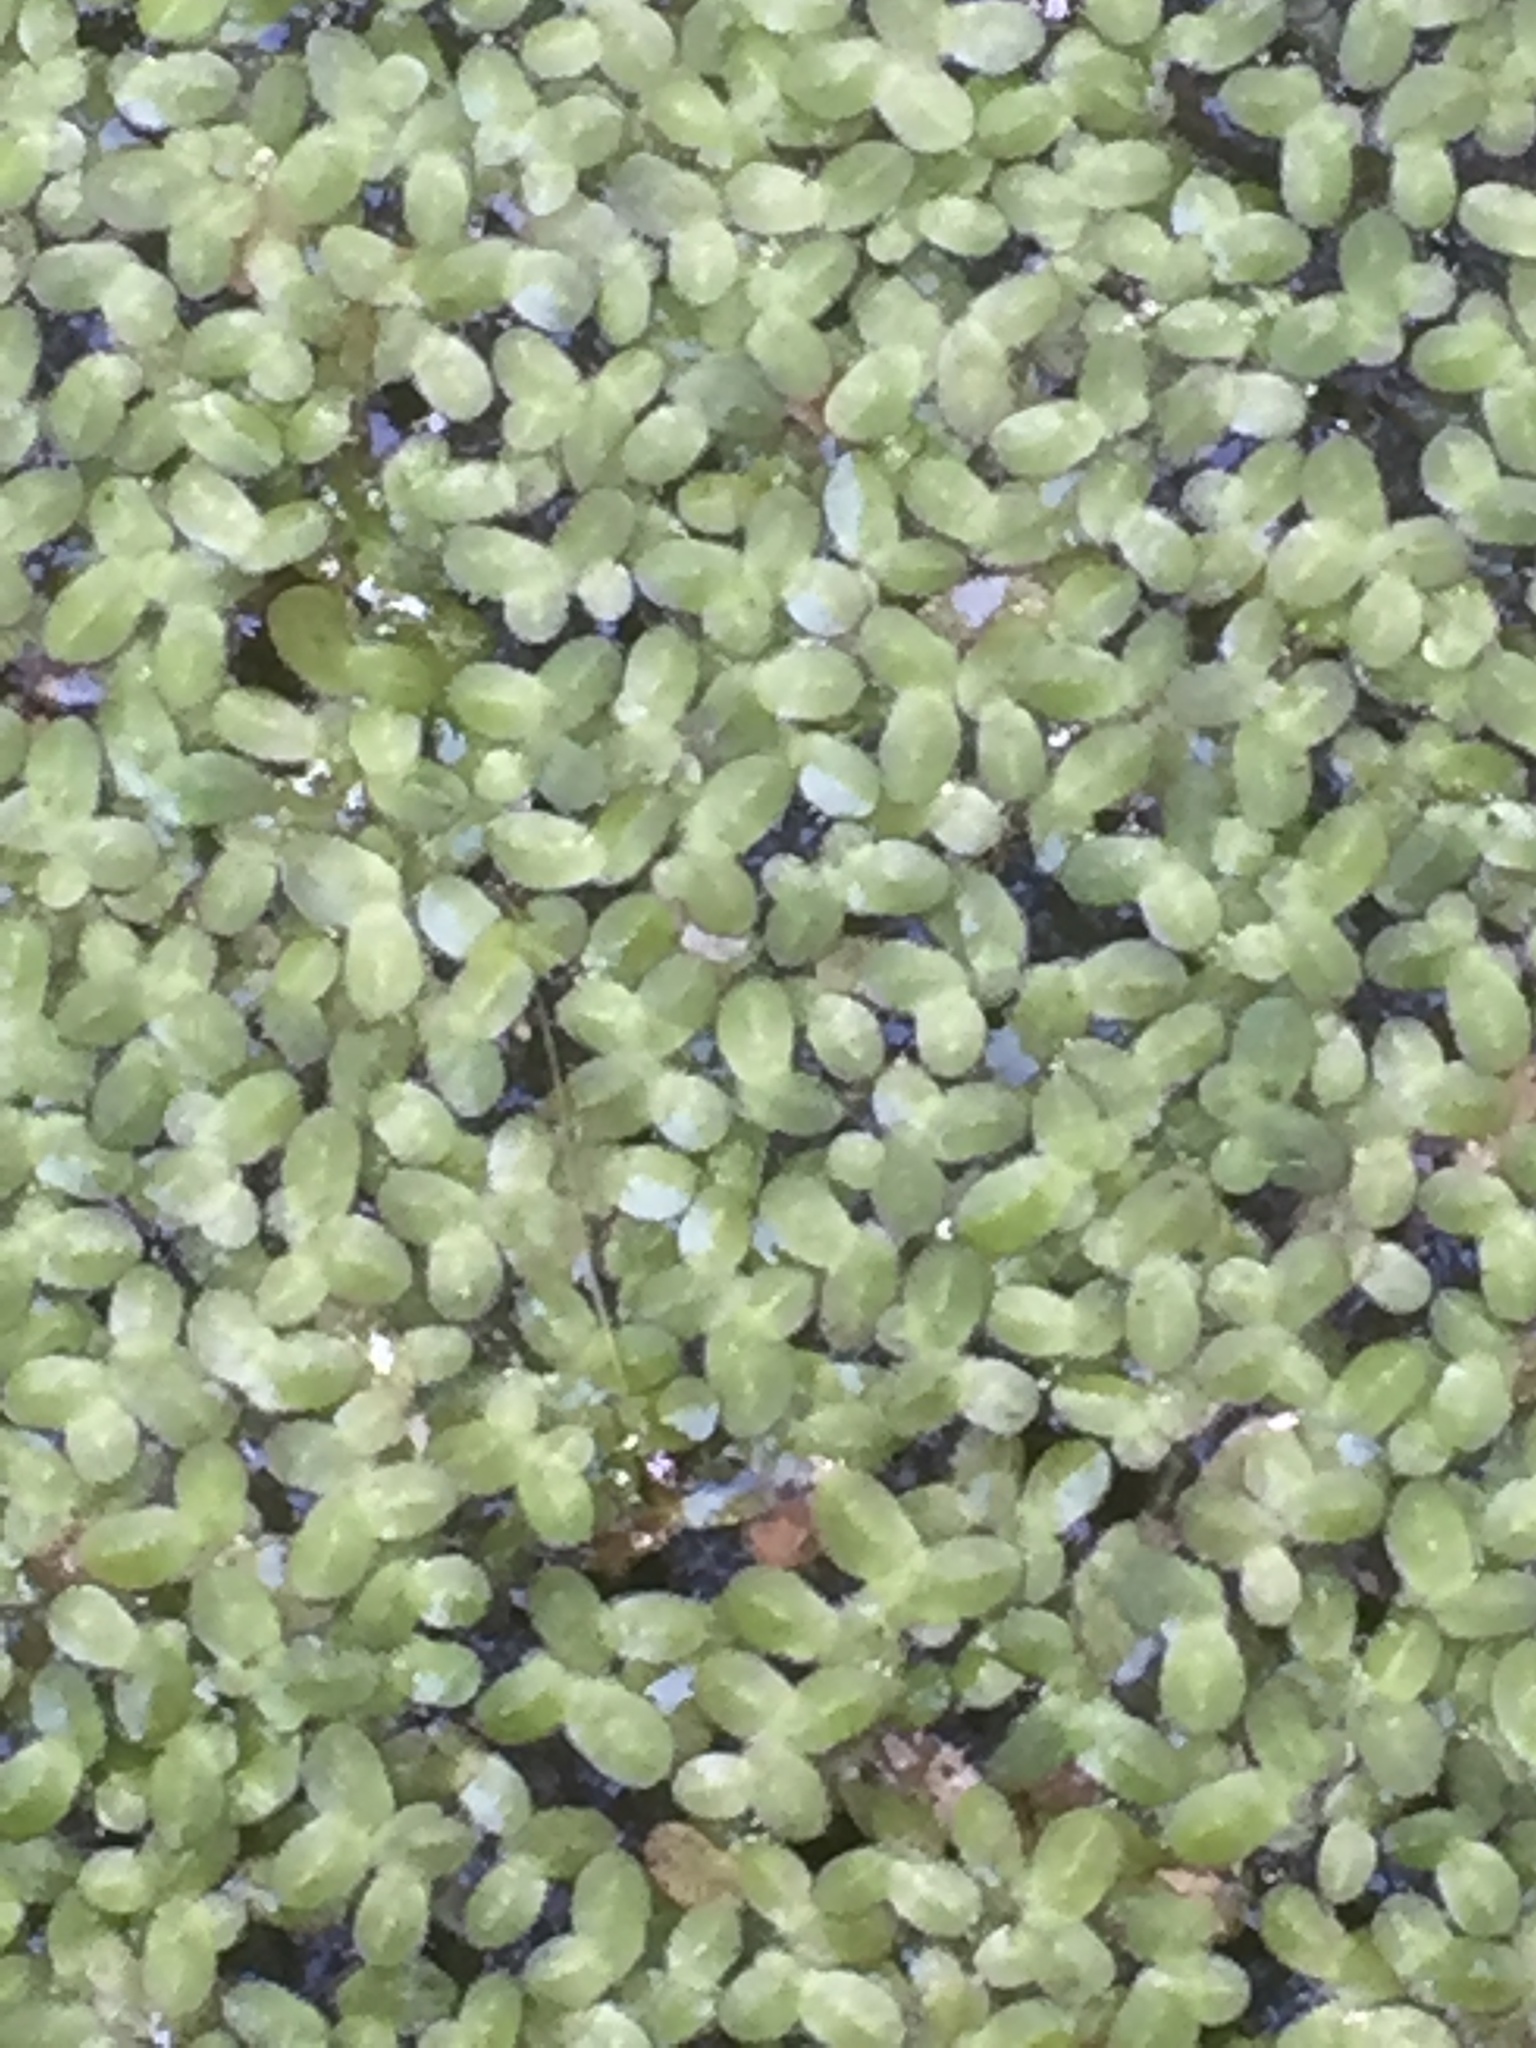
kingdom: Plantae
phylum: Tracheophyta
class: Liliopsida
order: Alismatales
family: Araceae
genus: Lemna
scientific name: Lemna minor
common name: Common duckweed
